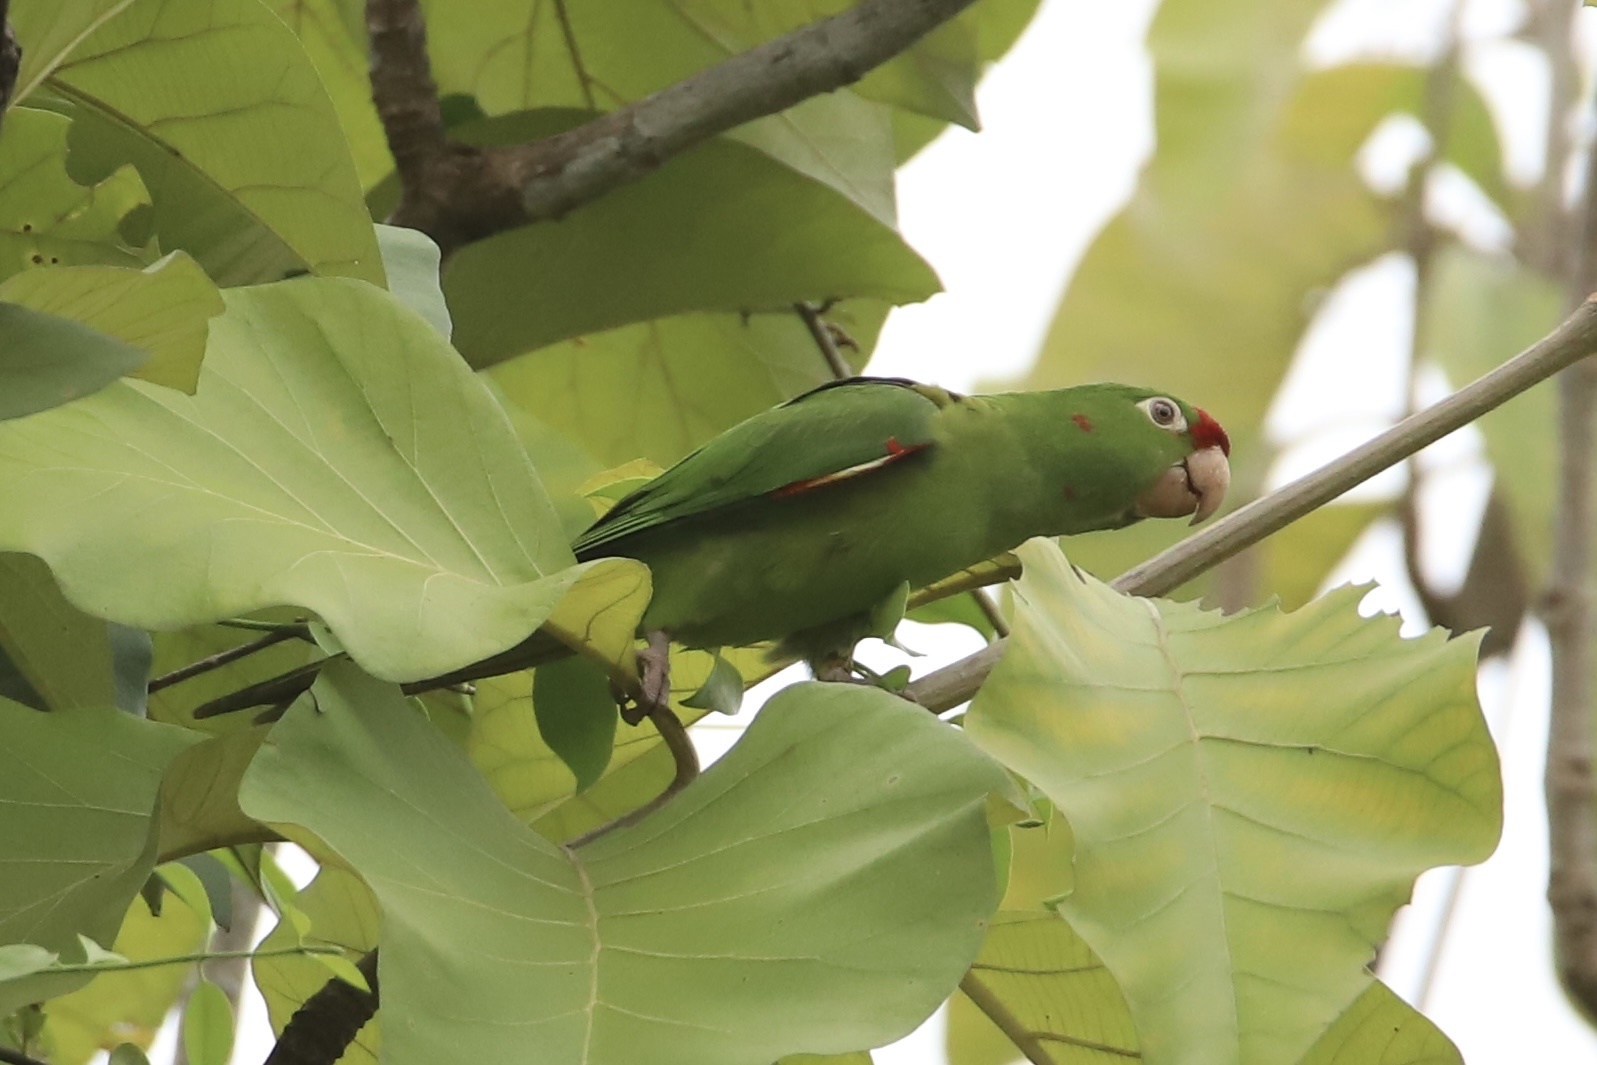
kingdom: Animalia
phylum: Chordata
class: Aves
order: Psittaciformes
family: Psittacidae
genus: Aratinga
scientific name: Aratinga finschi
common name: Crimson-fronted parakeet
